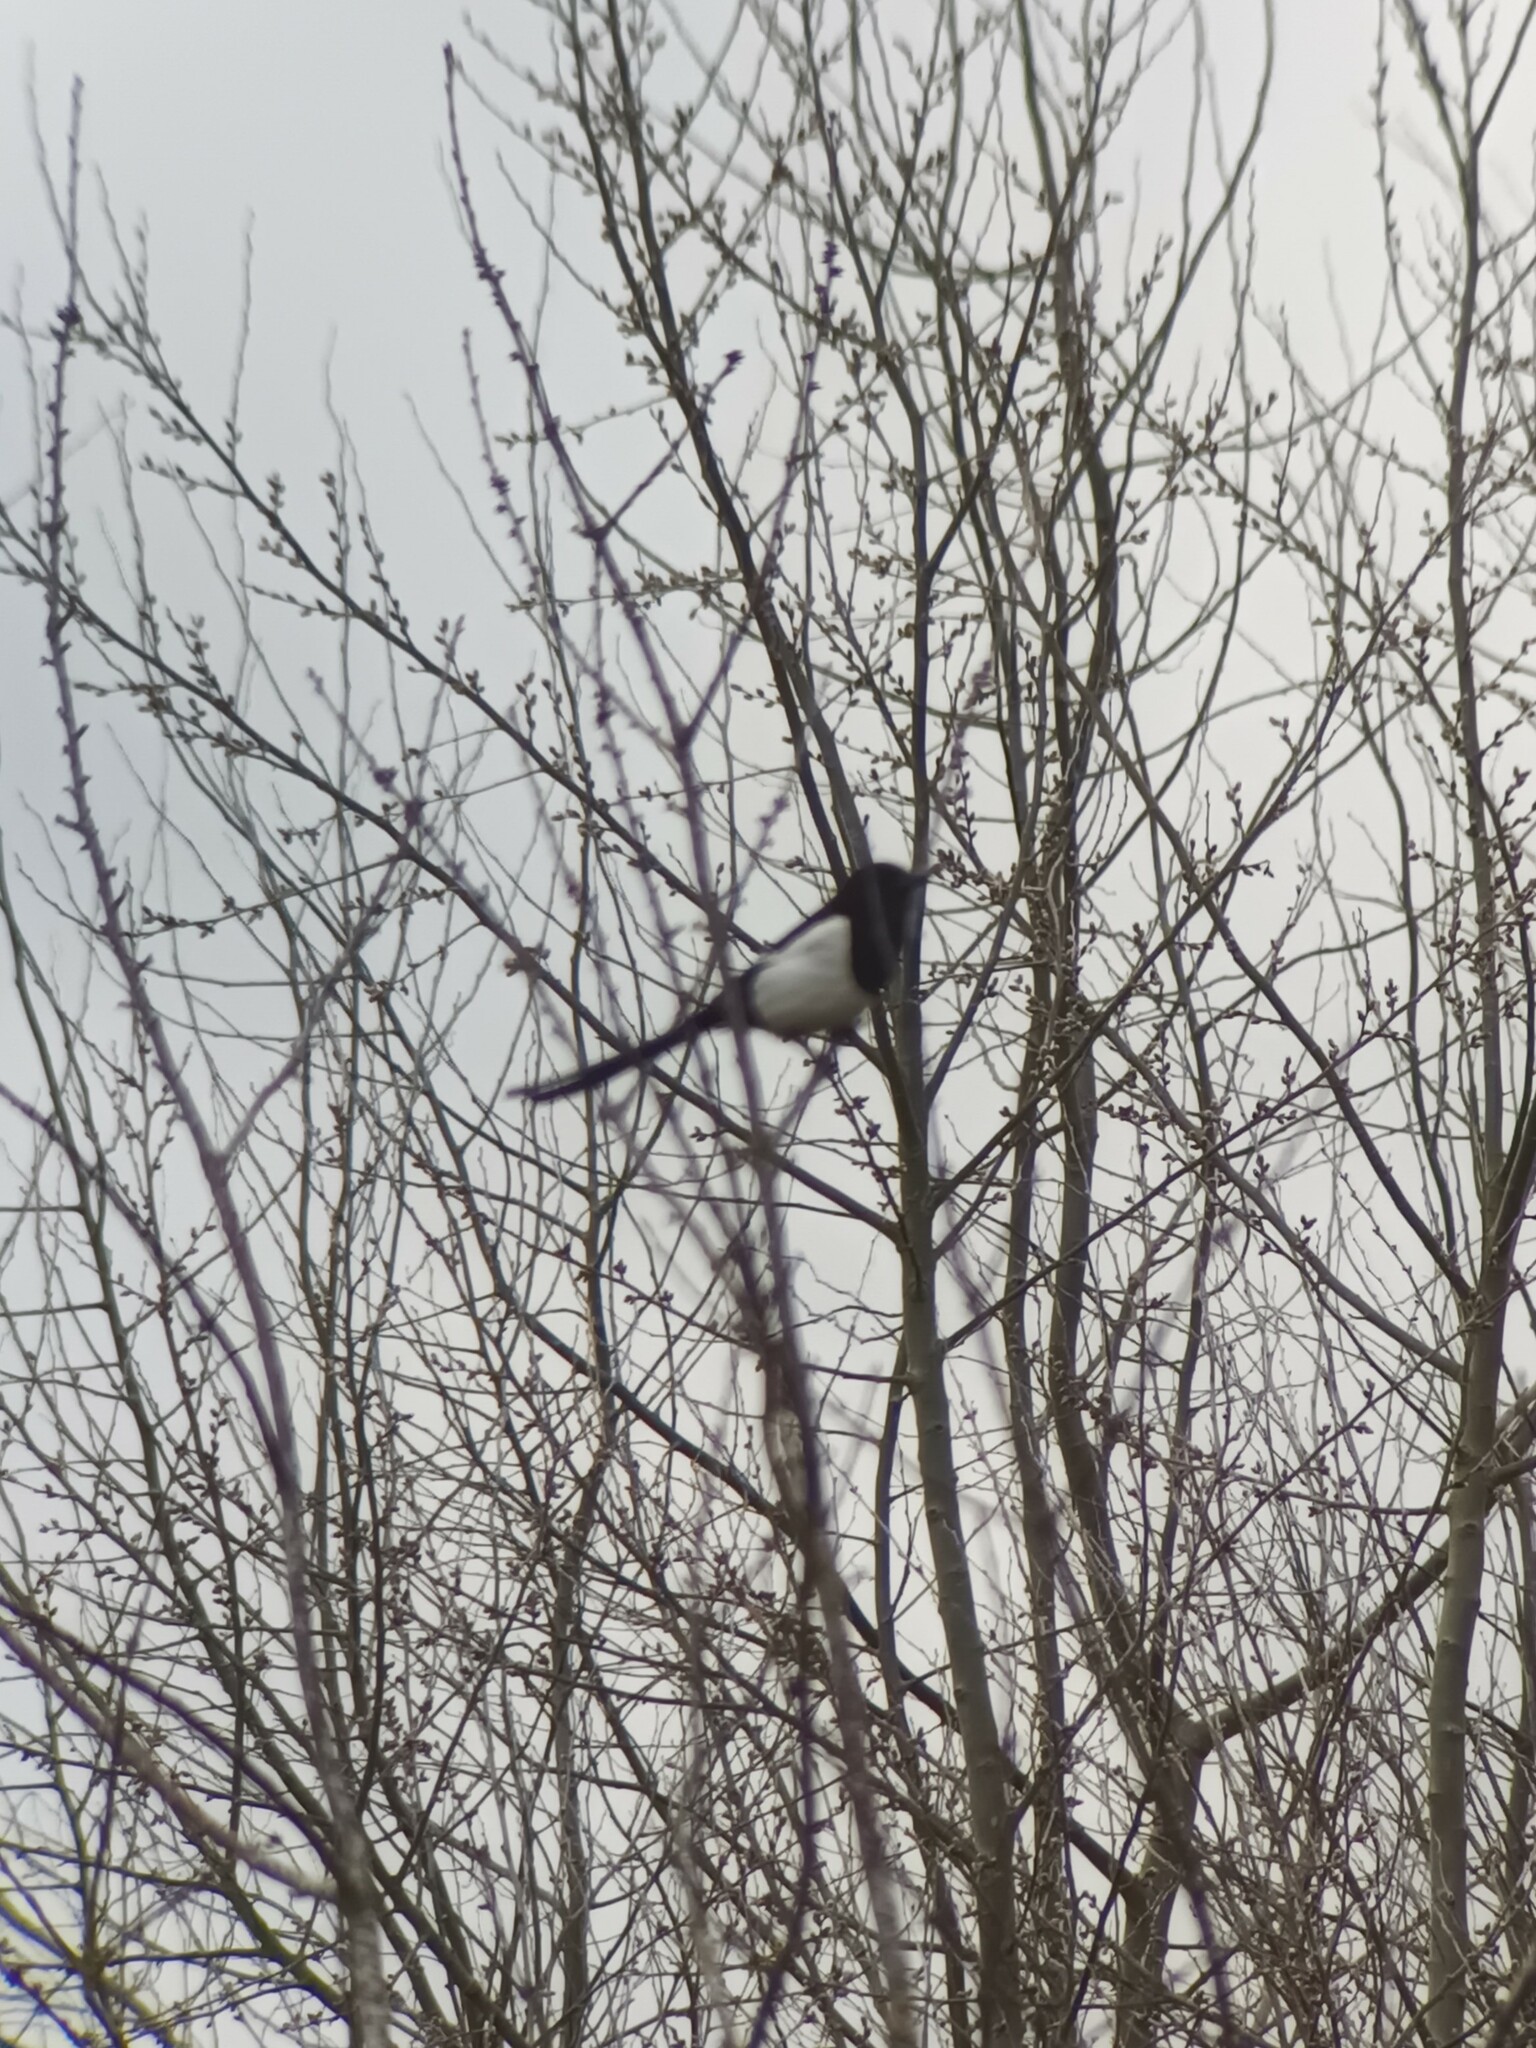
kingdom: Animalia
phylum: Chordata
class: Aves
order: Passeriformes
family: Corvidae
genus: Pica
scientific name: Pica pica
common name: Eurasian magpie
